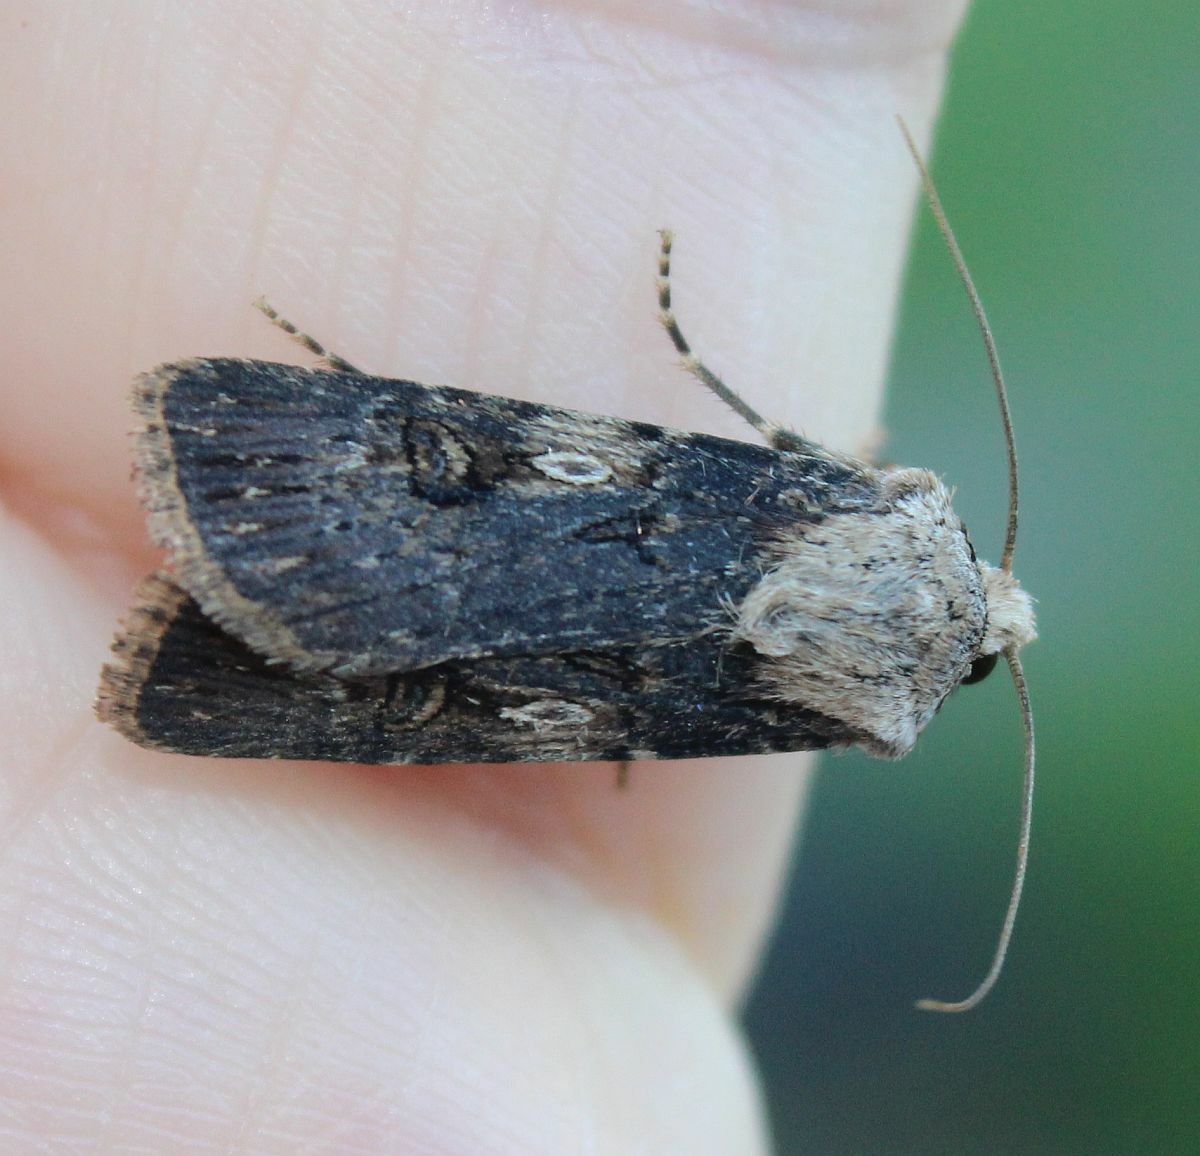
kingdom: Animalia
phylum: Arthropoda
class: Insecta
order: Lepidoptera
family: Noctuidae
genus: Agrotis
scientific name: Agrotis puta
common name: Shuttle-shaped dart
